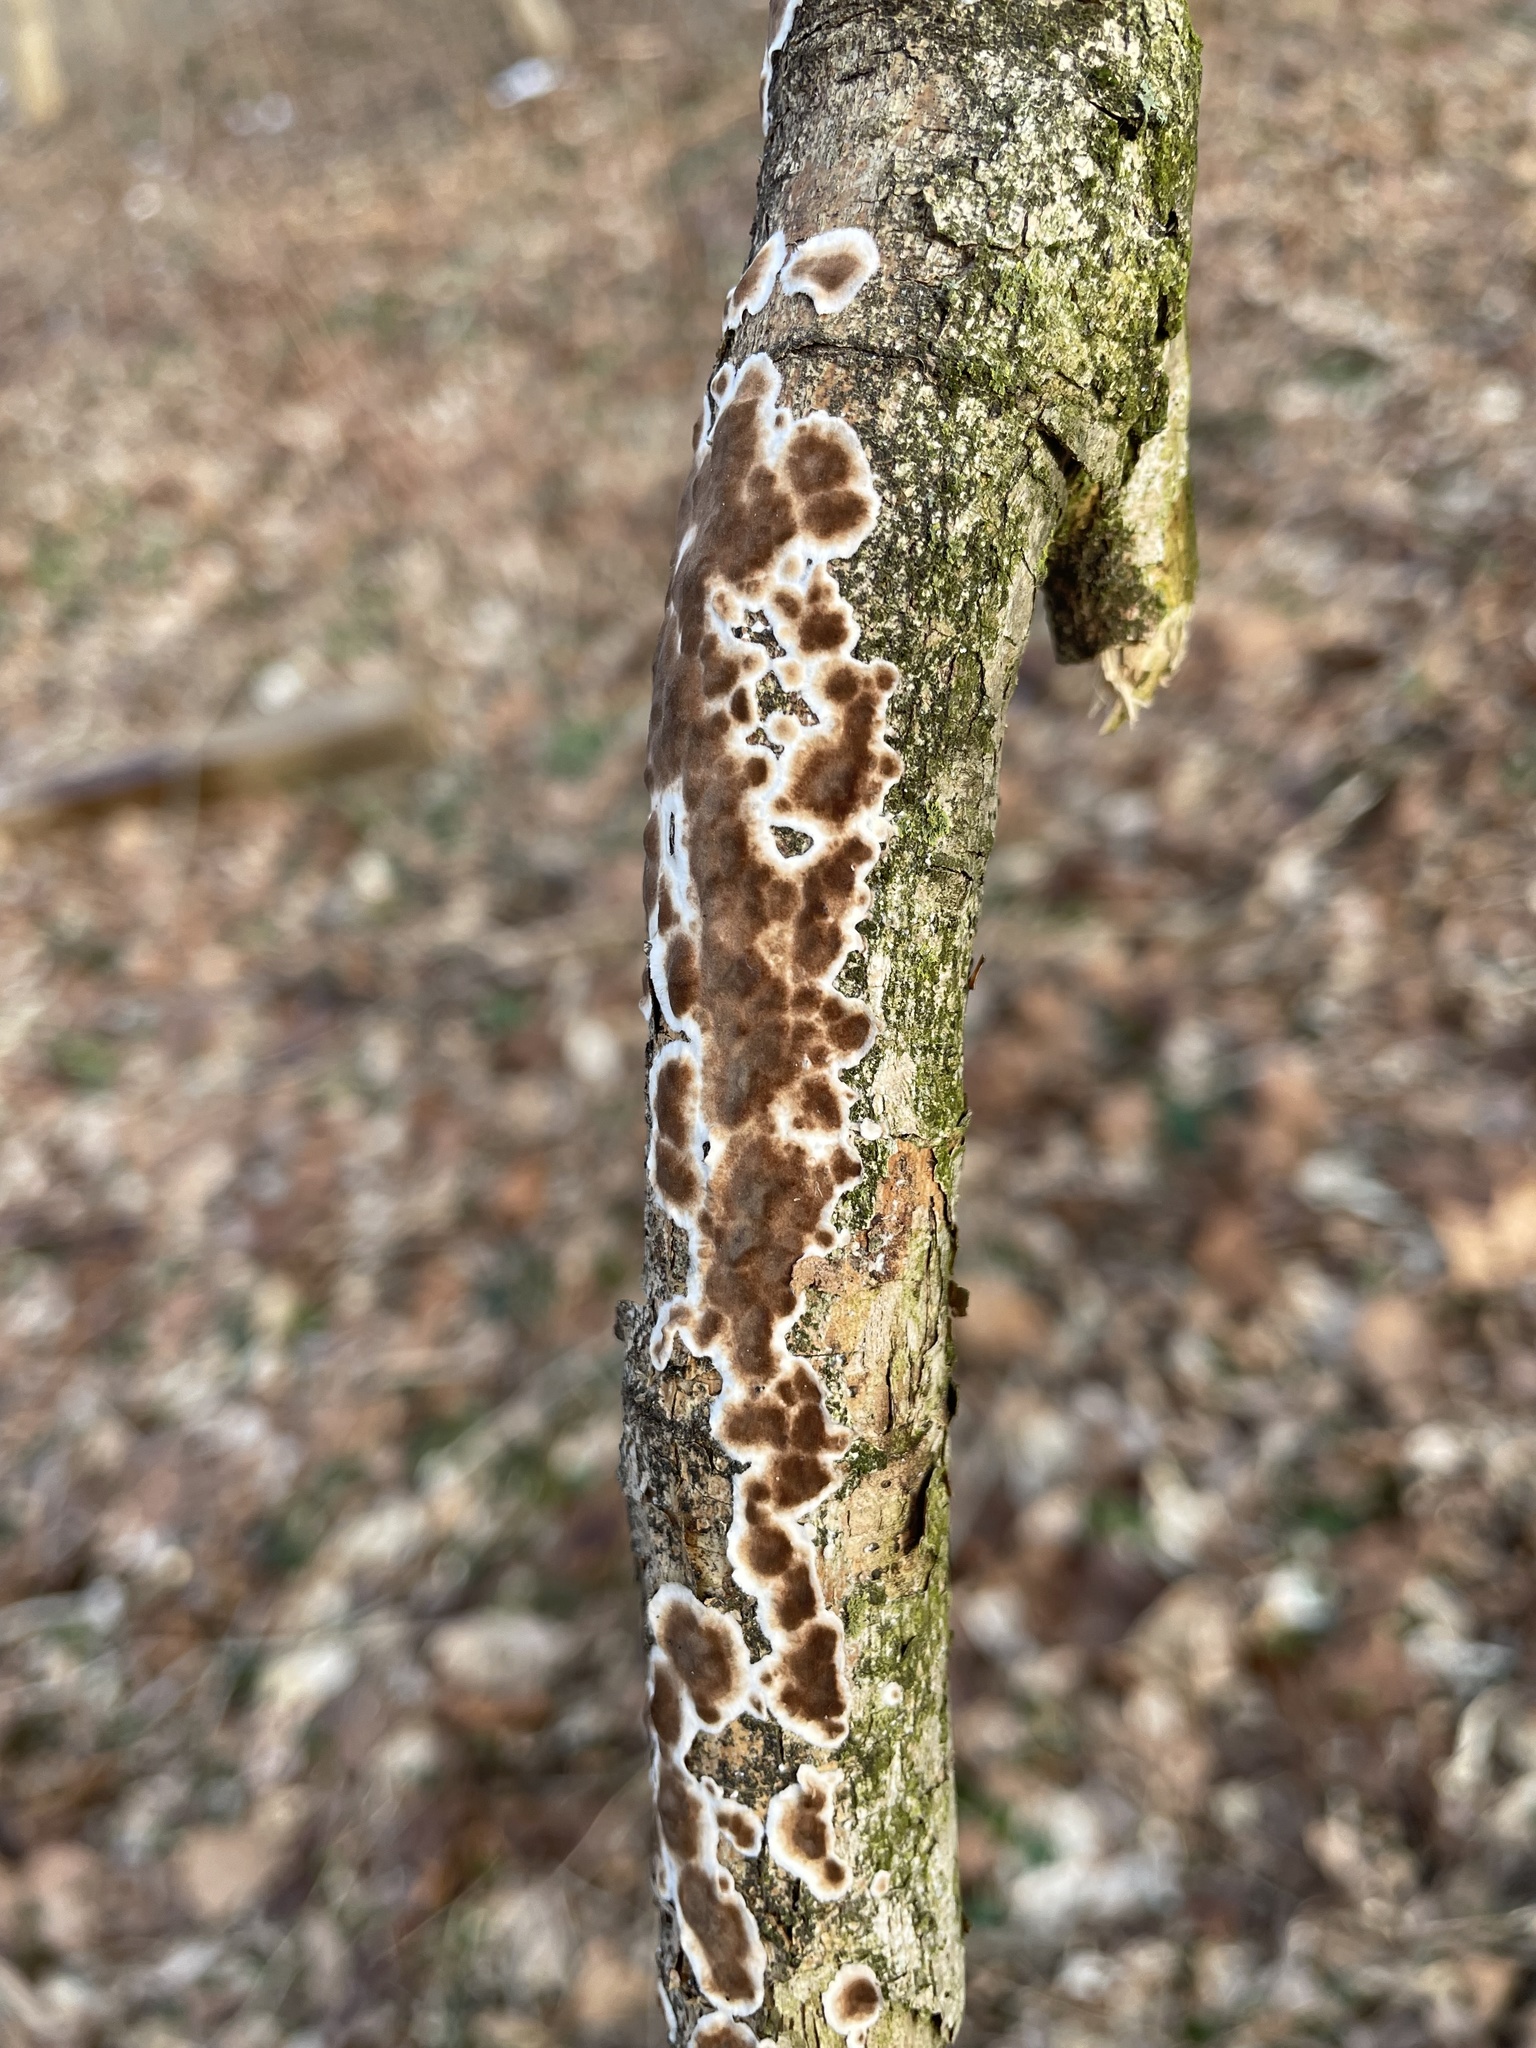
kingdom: Fungi
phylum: Basidiomycota
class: Agaricomycetes
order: Russulales
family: Peniophoraceae
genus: Peniophora
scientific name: Peniophora albobadia
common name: Giraffe spots
